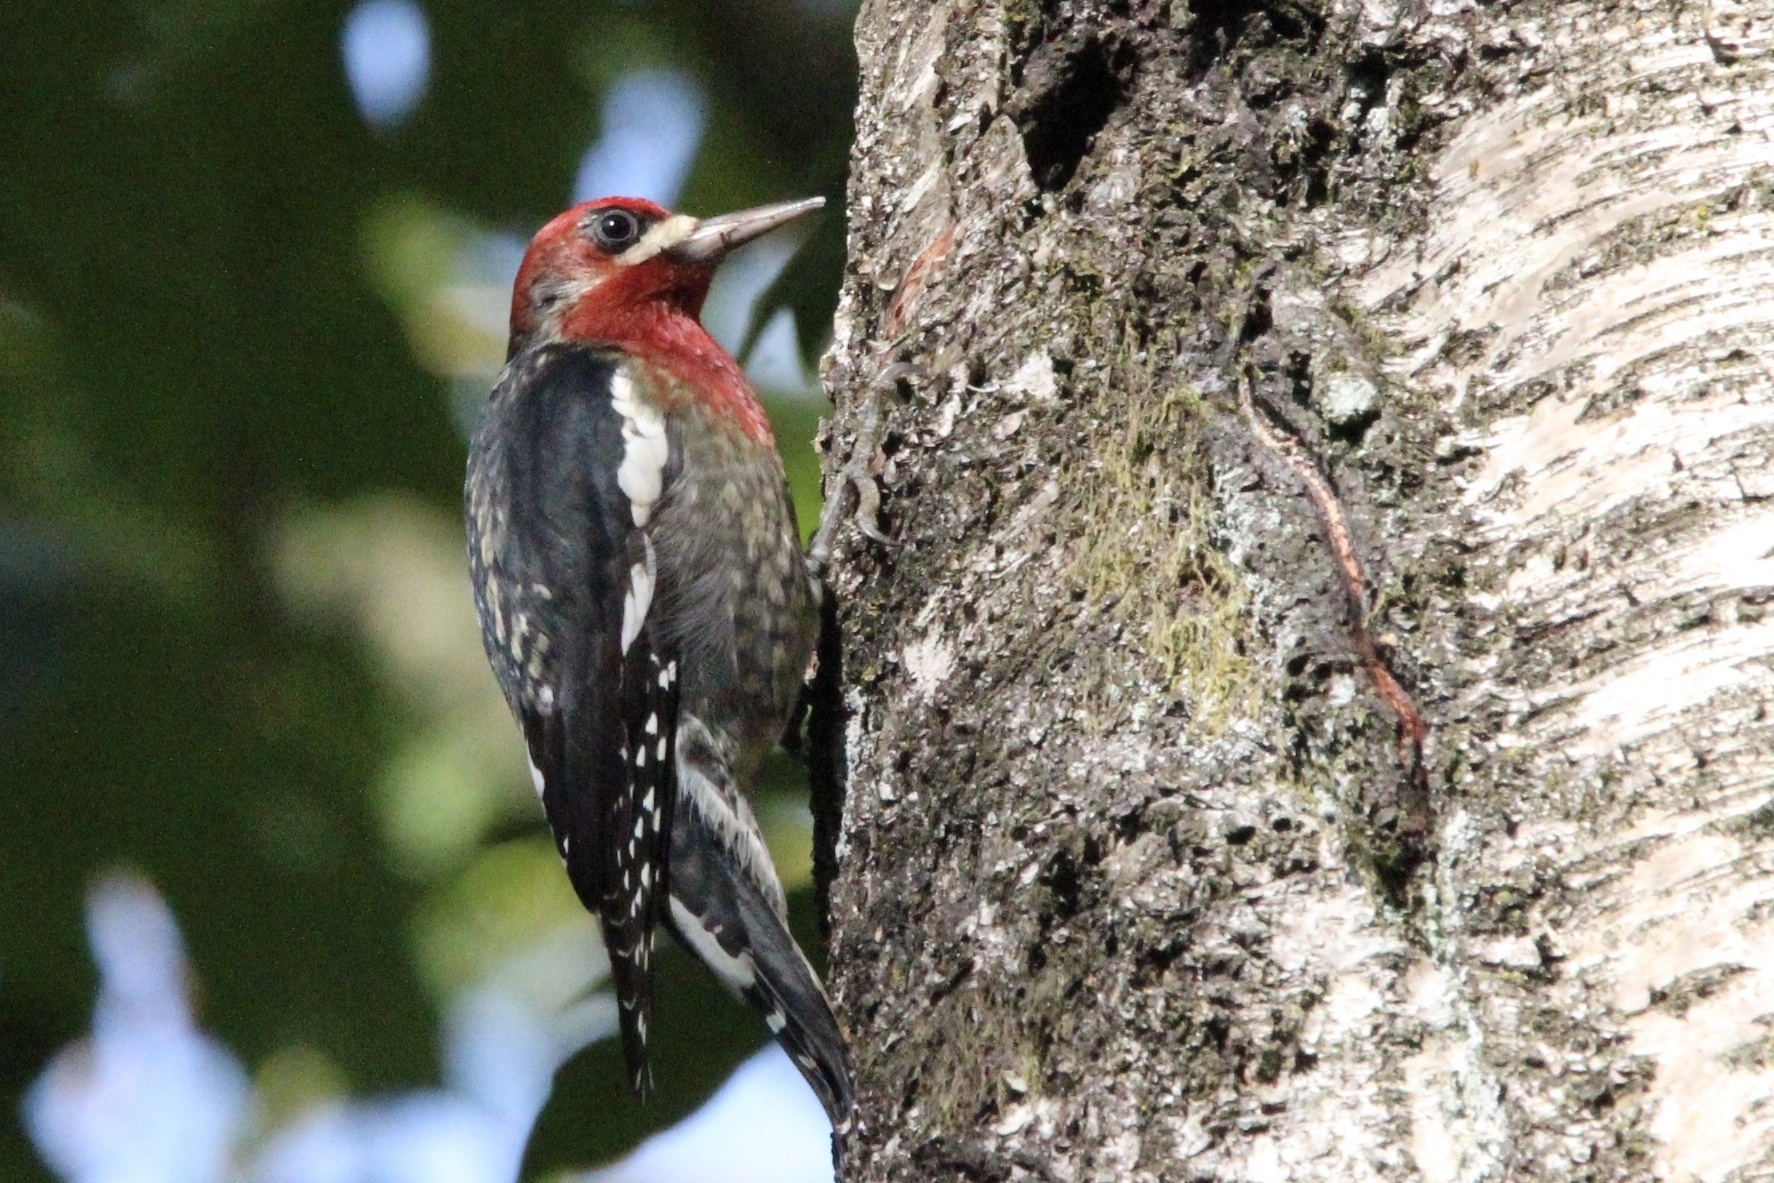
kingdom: Animalia
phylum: Chordata
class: Aves
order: Piciformes
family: Picidae
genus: Sphyrapicus
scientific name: Sphyrapicus ruber
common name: Red-breasted sapsucker
